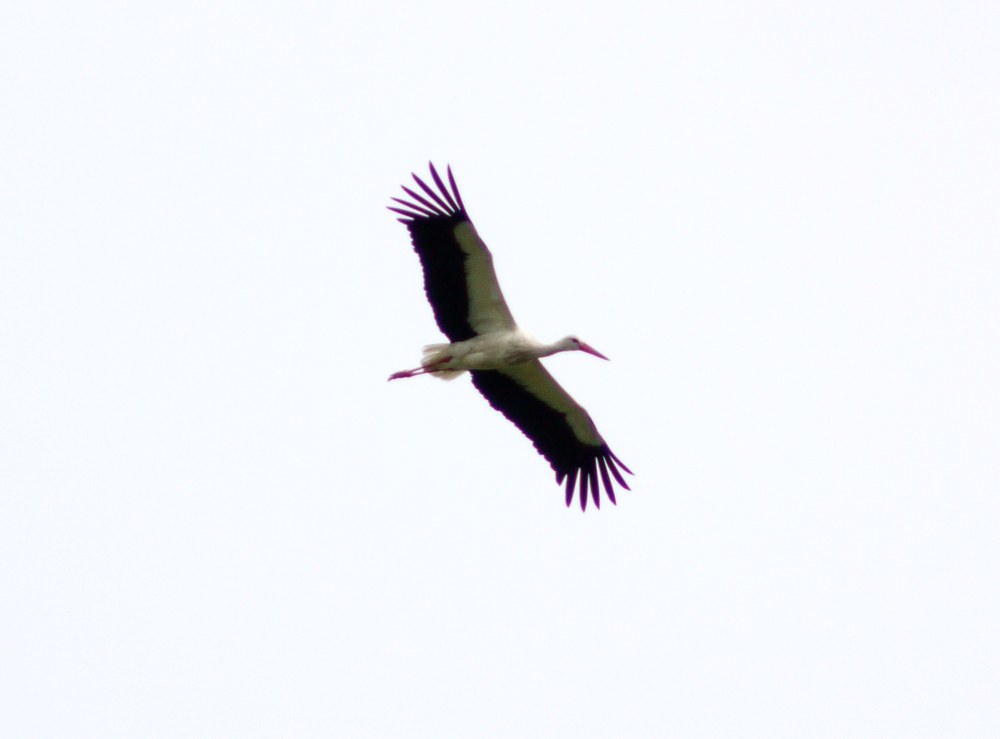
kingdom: Animalia
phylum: Chordata
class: Aves
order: Ciconiiformes
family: Ciconiidae
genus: Ciconia
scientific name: Ciconia ciconia
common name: White stork
